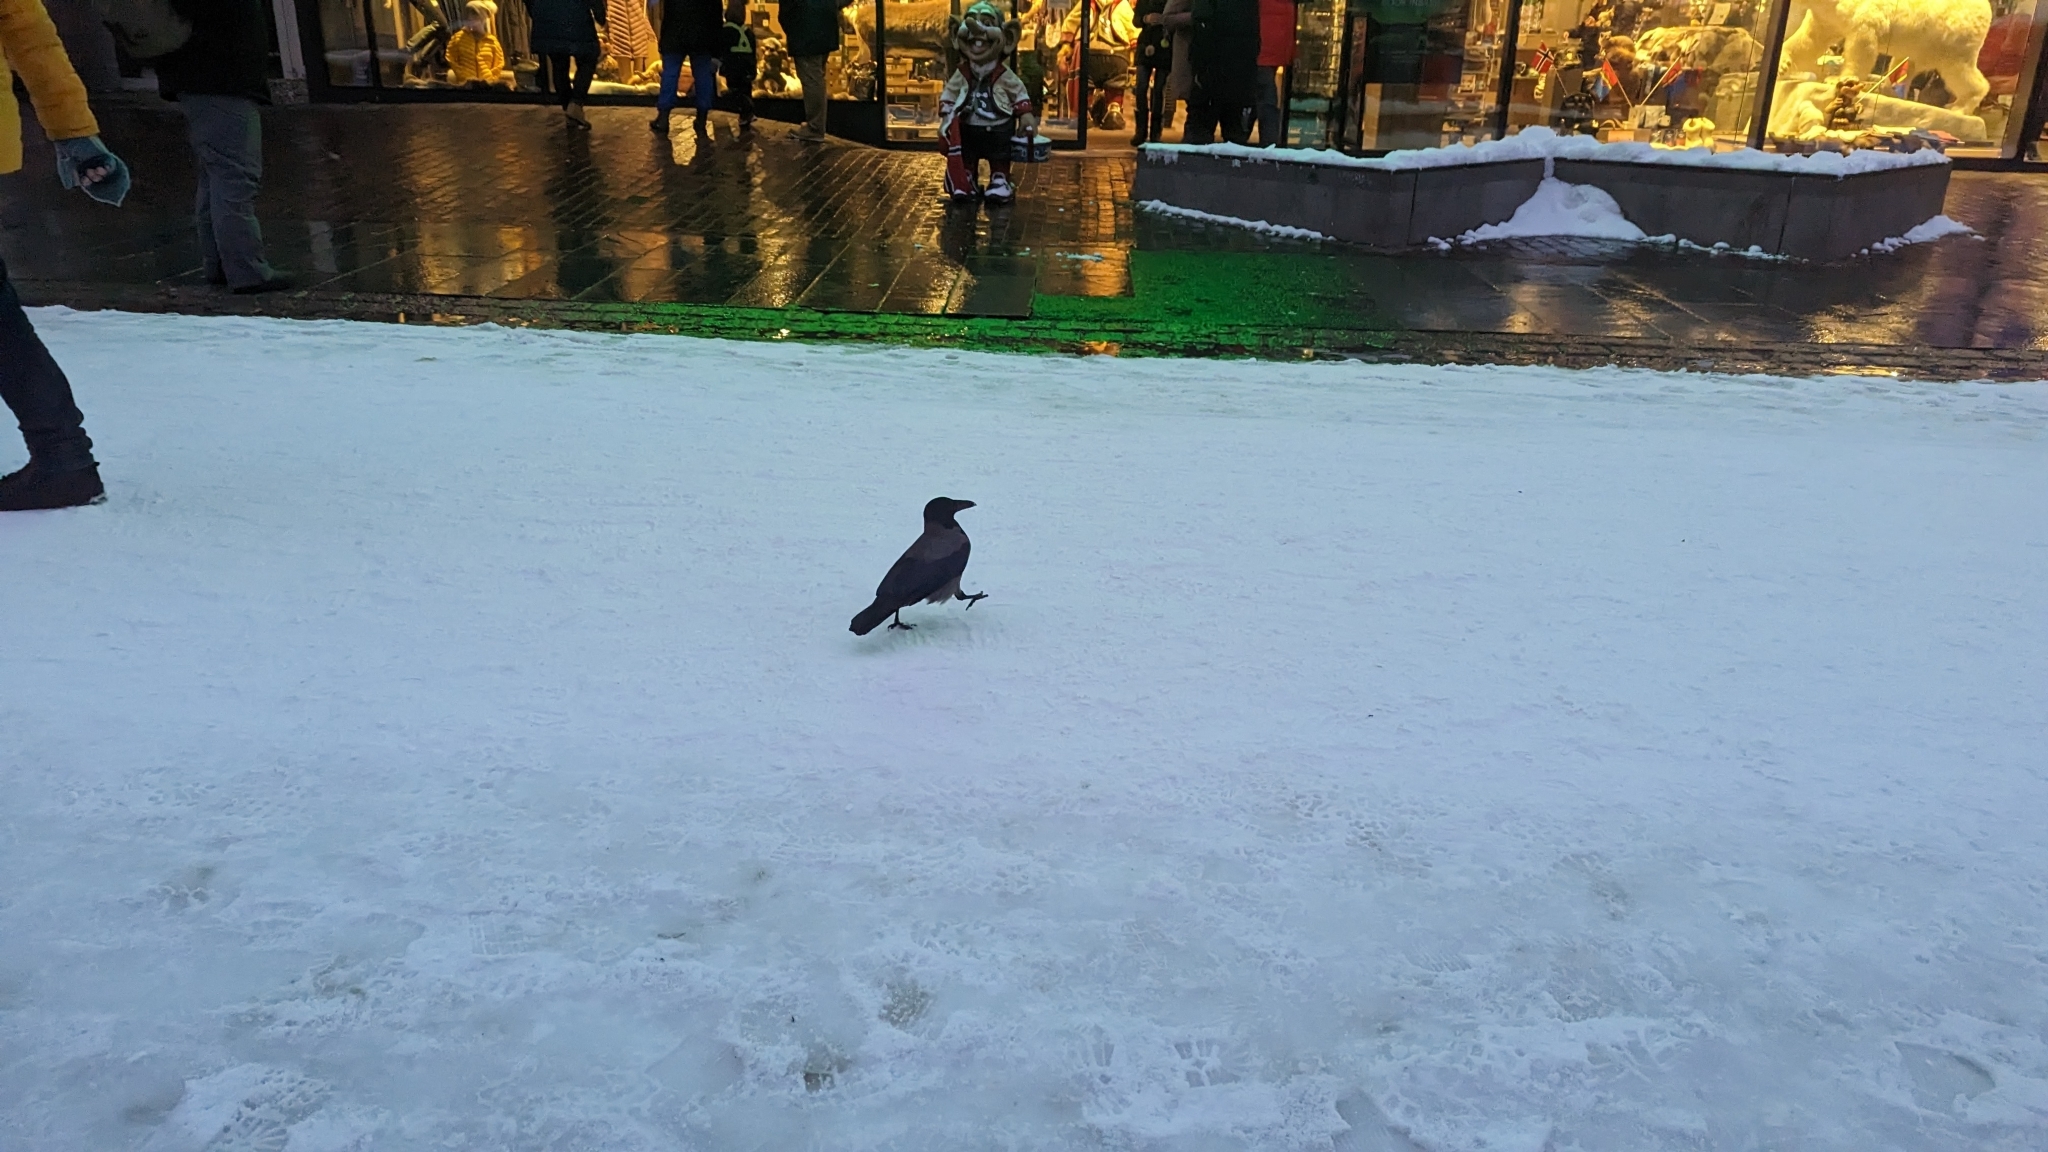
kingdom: Animalia
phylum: Chordata
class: Aves
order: Passeriformes
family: Corvidae
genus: Corvus
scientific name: Corvus cornix
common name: Hooded crow
